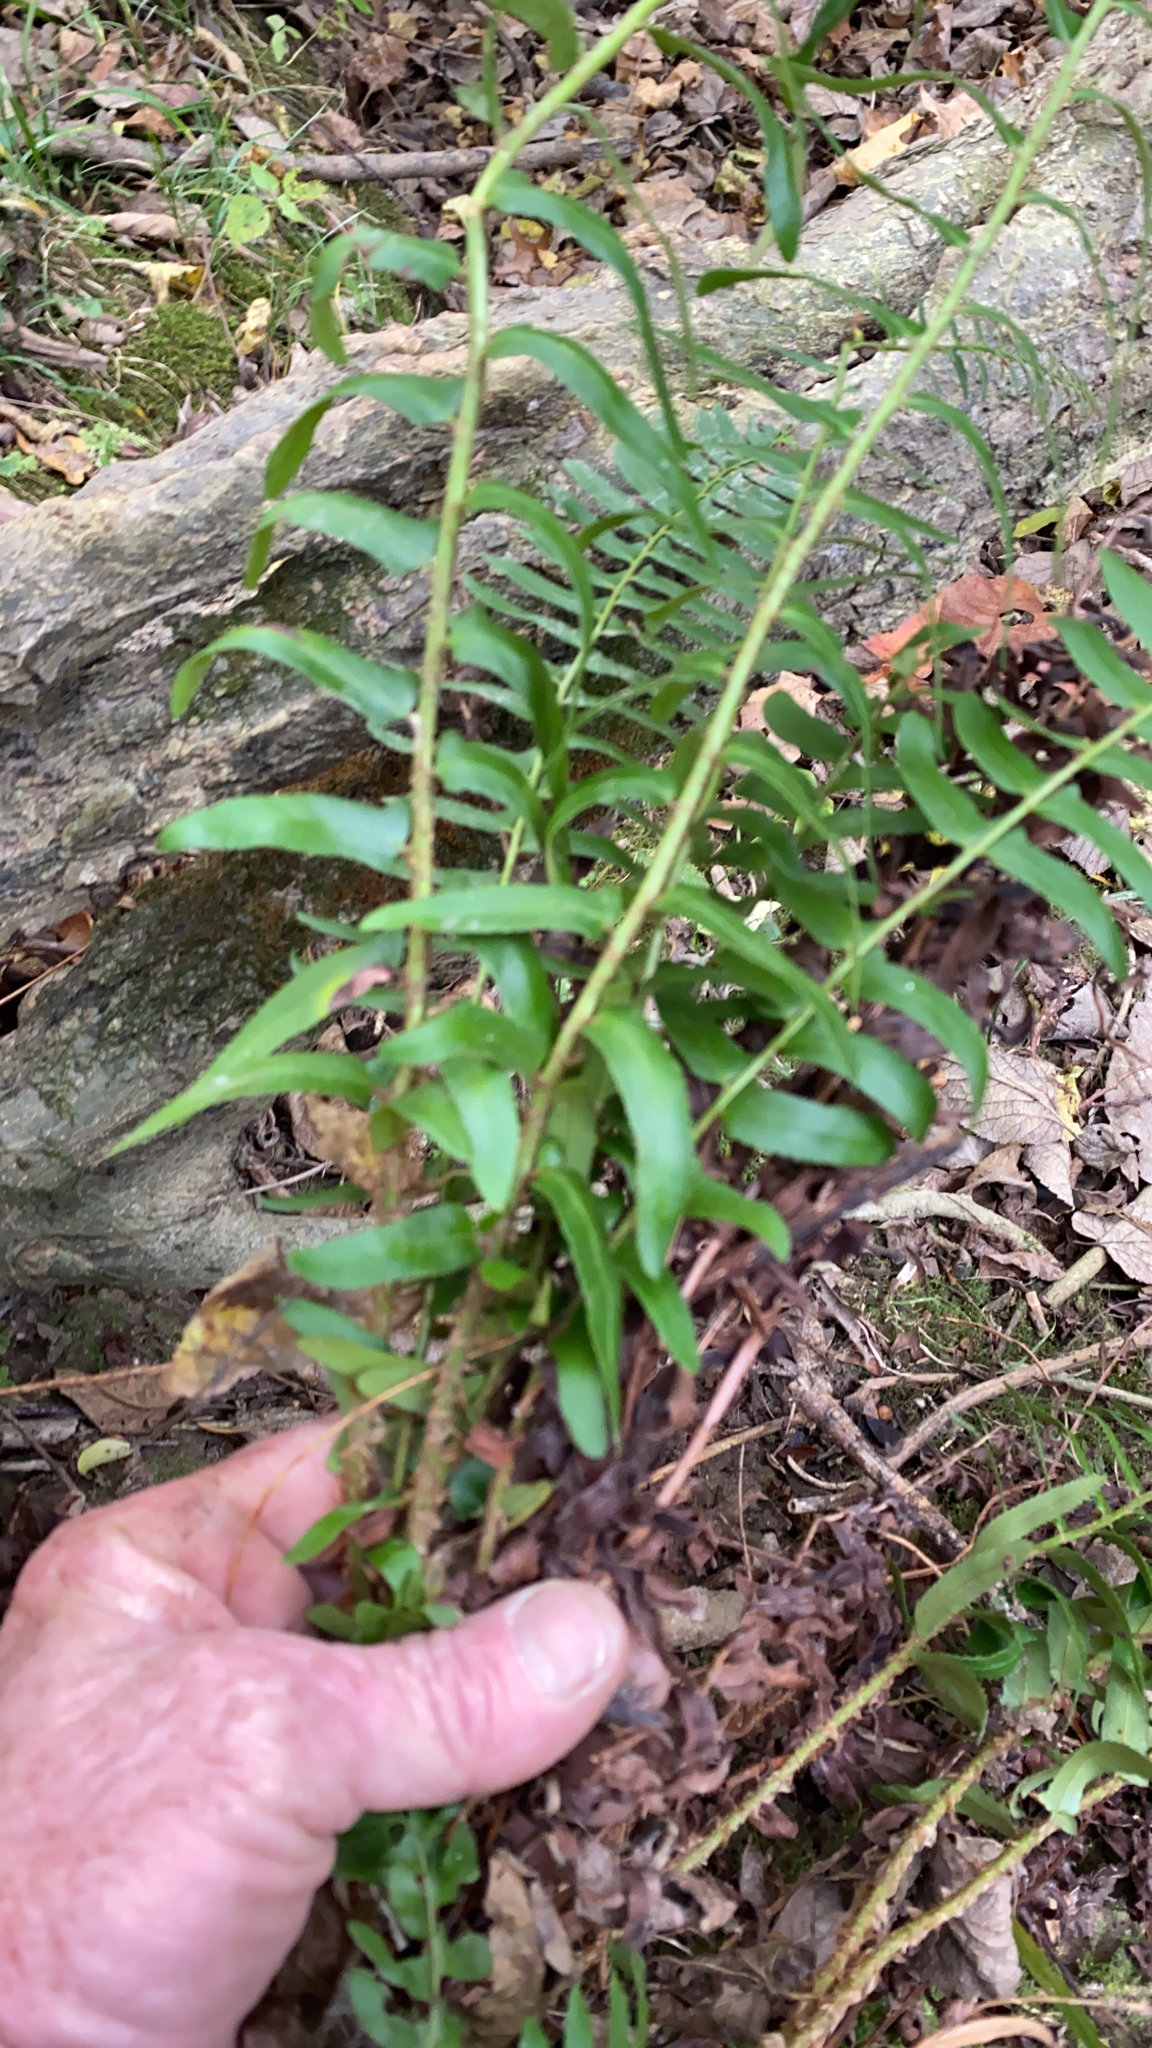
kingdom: Plantae
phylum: Tracheophyta
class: Polypodiopsida
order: Polypodiales
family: Dryopteridaceae
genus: Polystichum
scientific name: Polystichum acrostichoides
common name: Christmas fern
